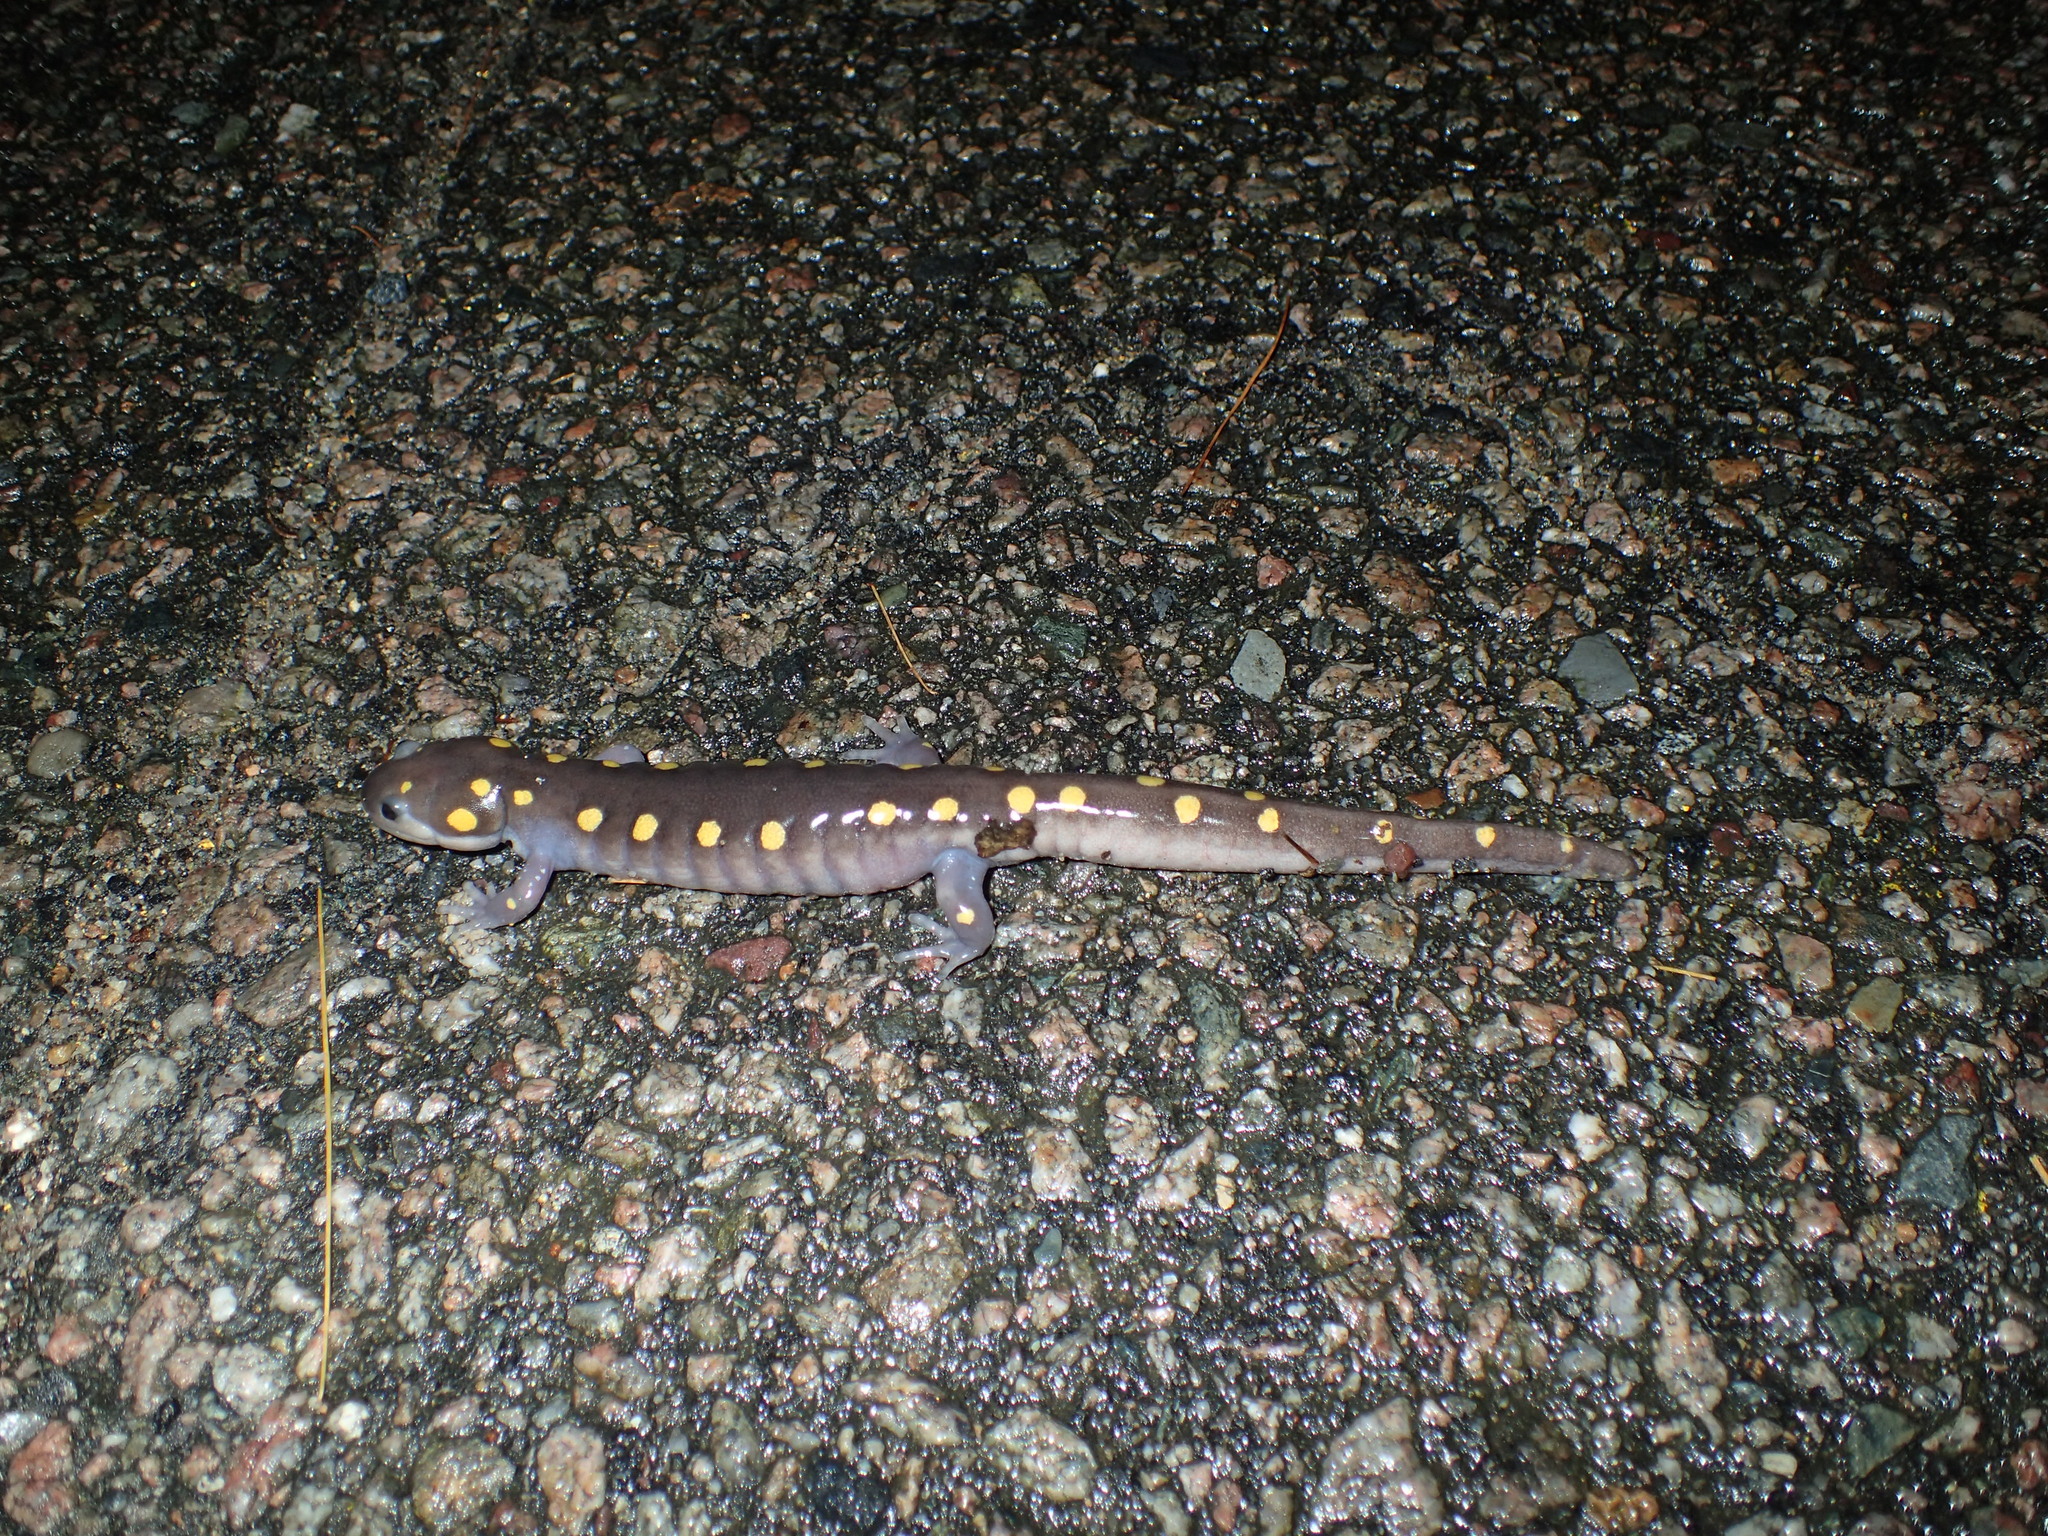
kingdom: Animalia
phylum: Chordata
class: Amphibia
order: Caudata
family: Ambystomatidae
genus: Ambystoma
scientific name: Ambystoma maculatum
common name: Spotted salamander
